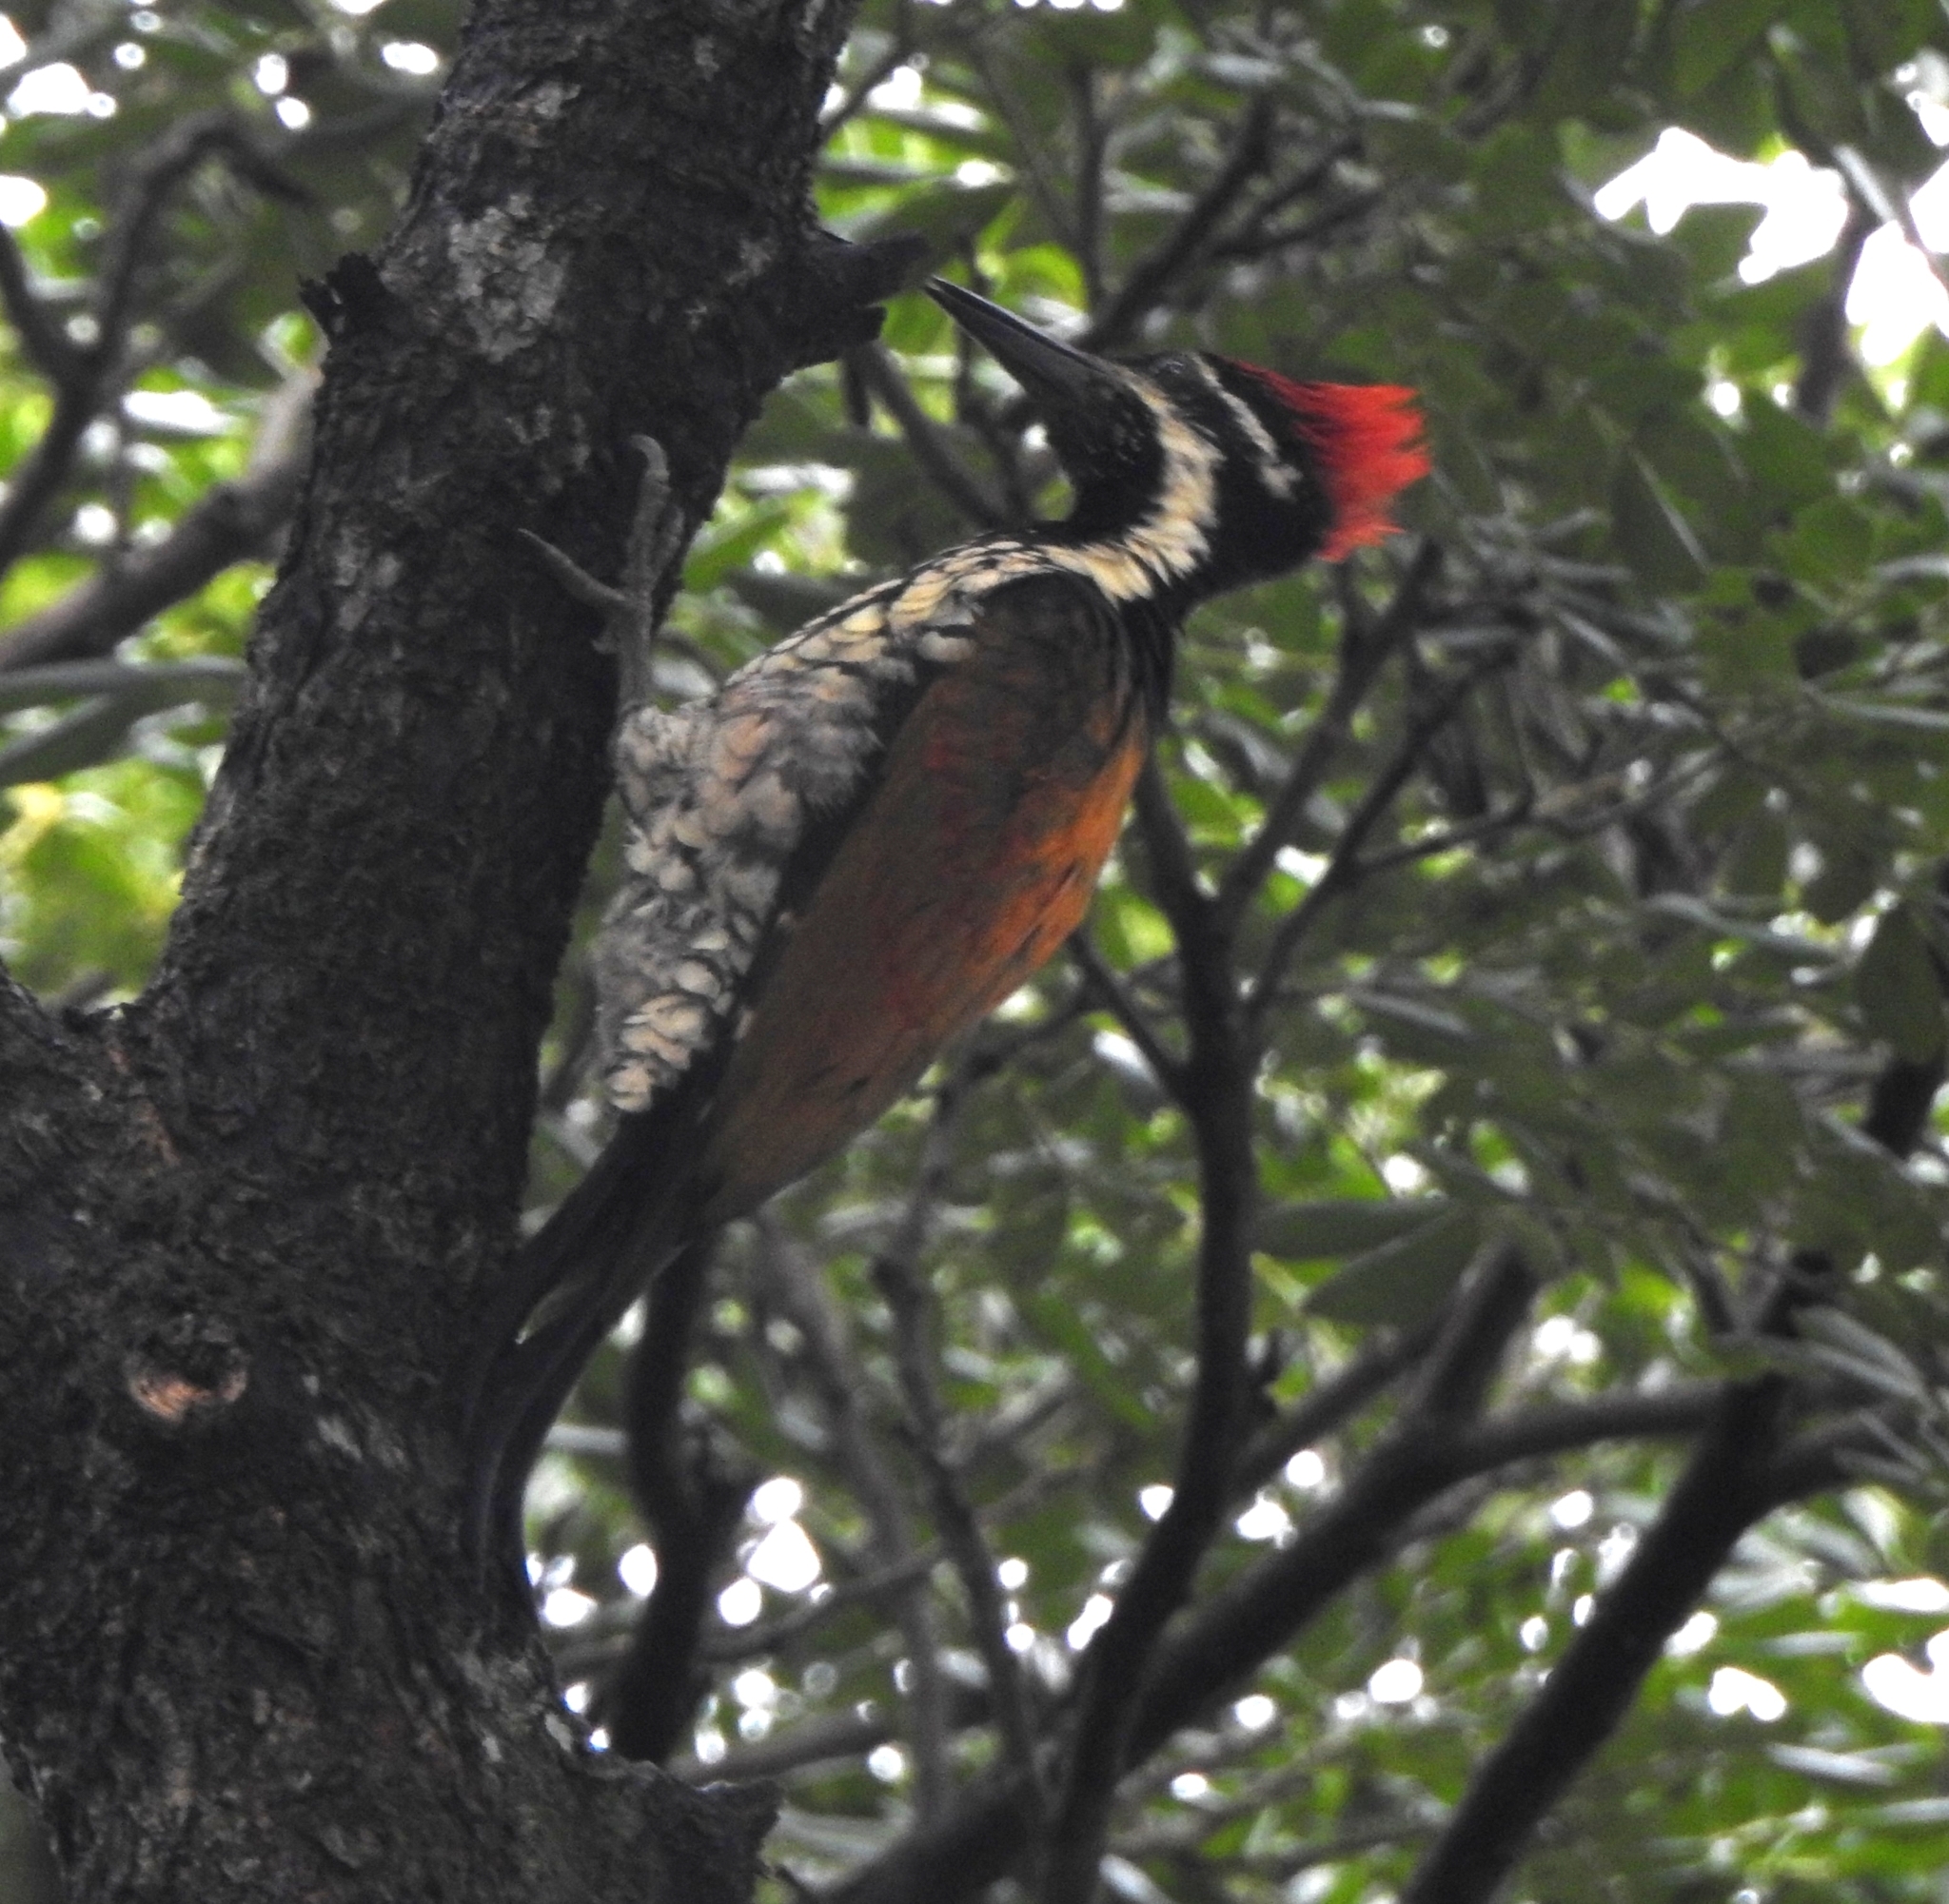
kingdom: Animalia
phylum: Chordata
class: Aves
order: Piciformes
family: Picidae
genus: Dinopium
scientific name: Dinopium benghalense
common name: Black-rumped flameback
